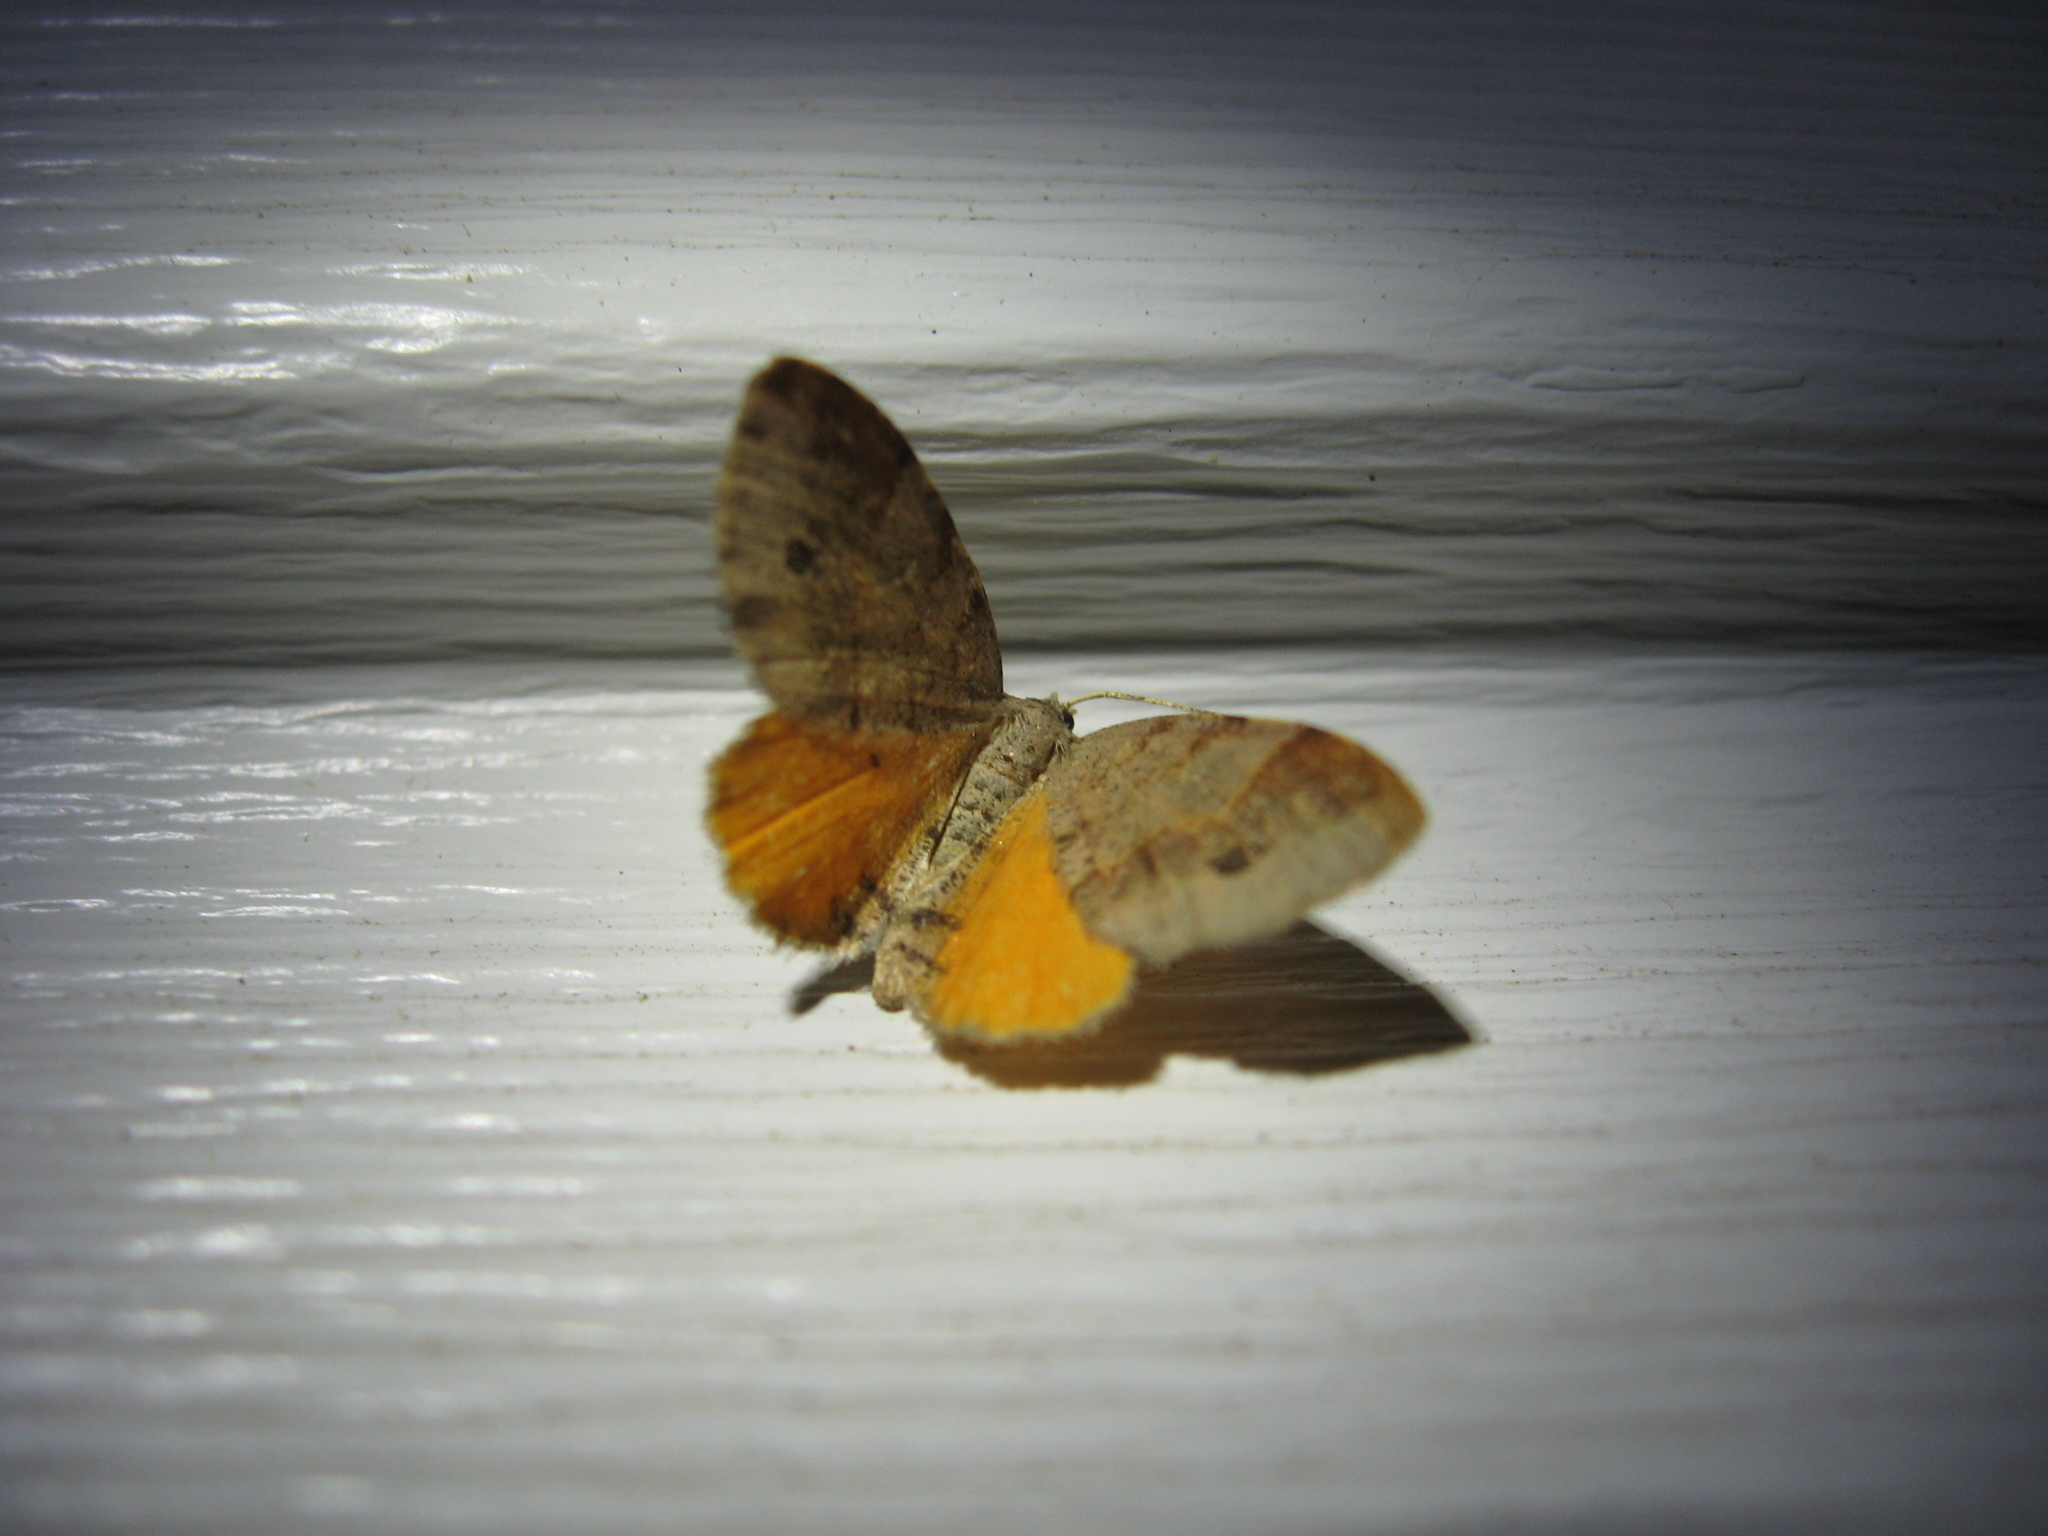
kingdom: Animalia
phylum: Arthropoda
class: Insecta
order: Lepidoptera
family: Geometridae
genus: Mellilla
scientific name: Mellilla xanthometata
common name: Orange wing moth
